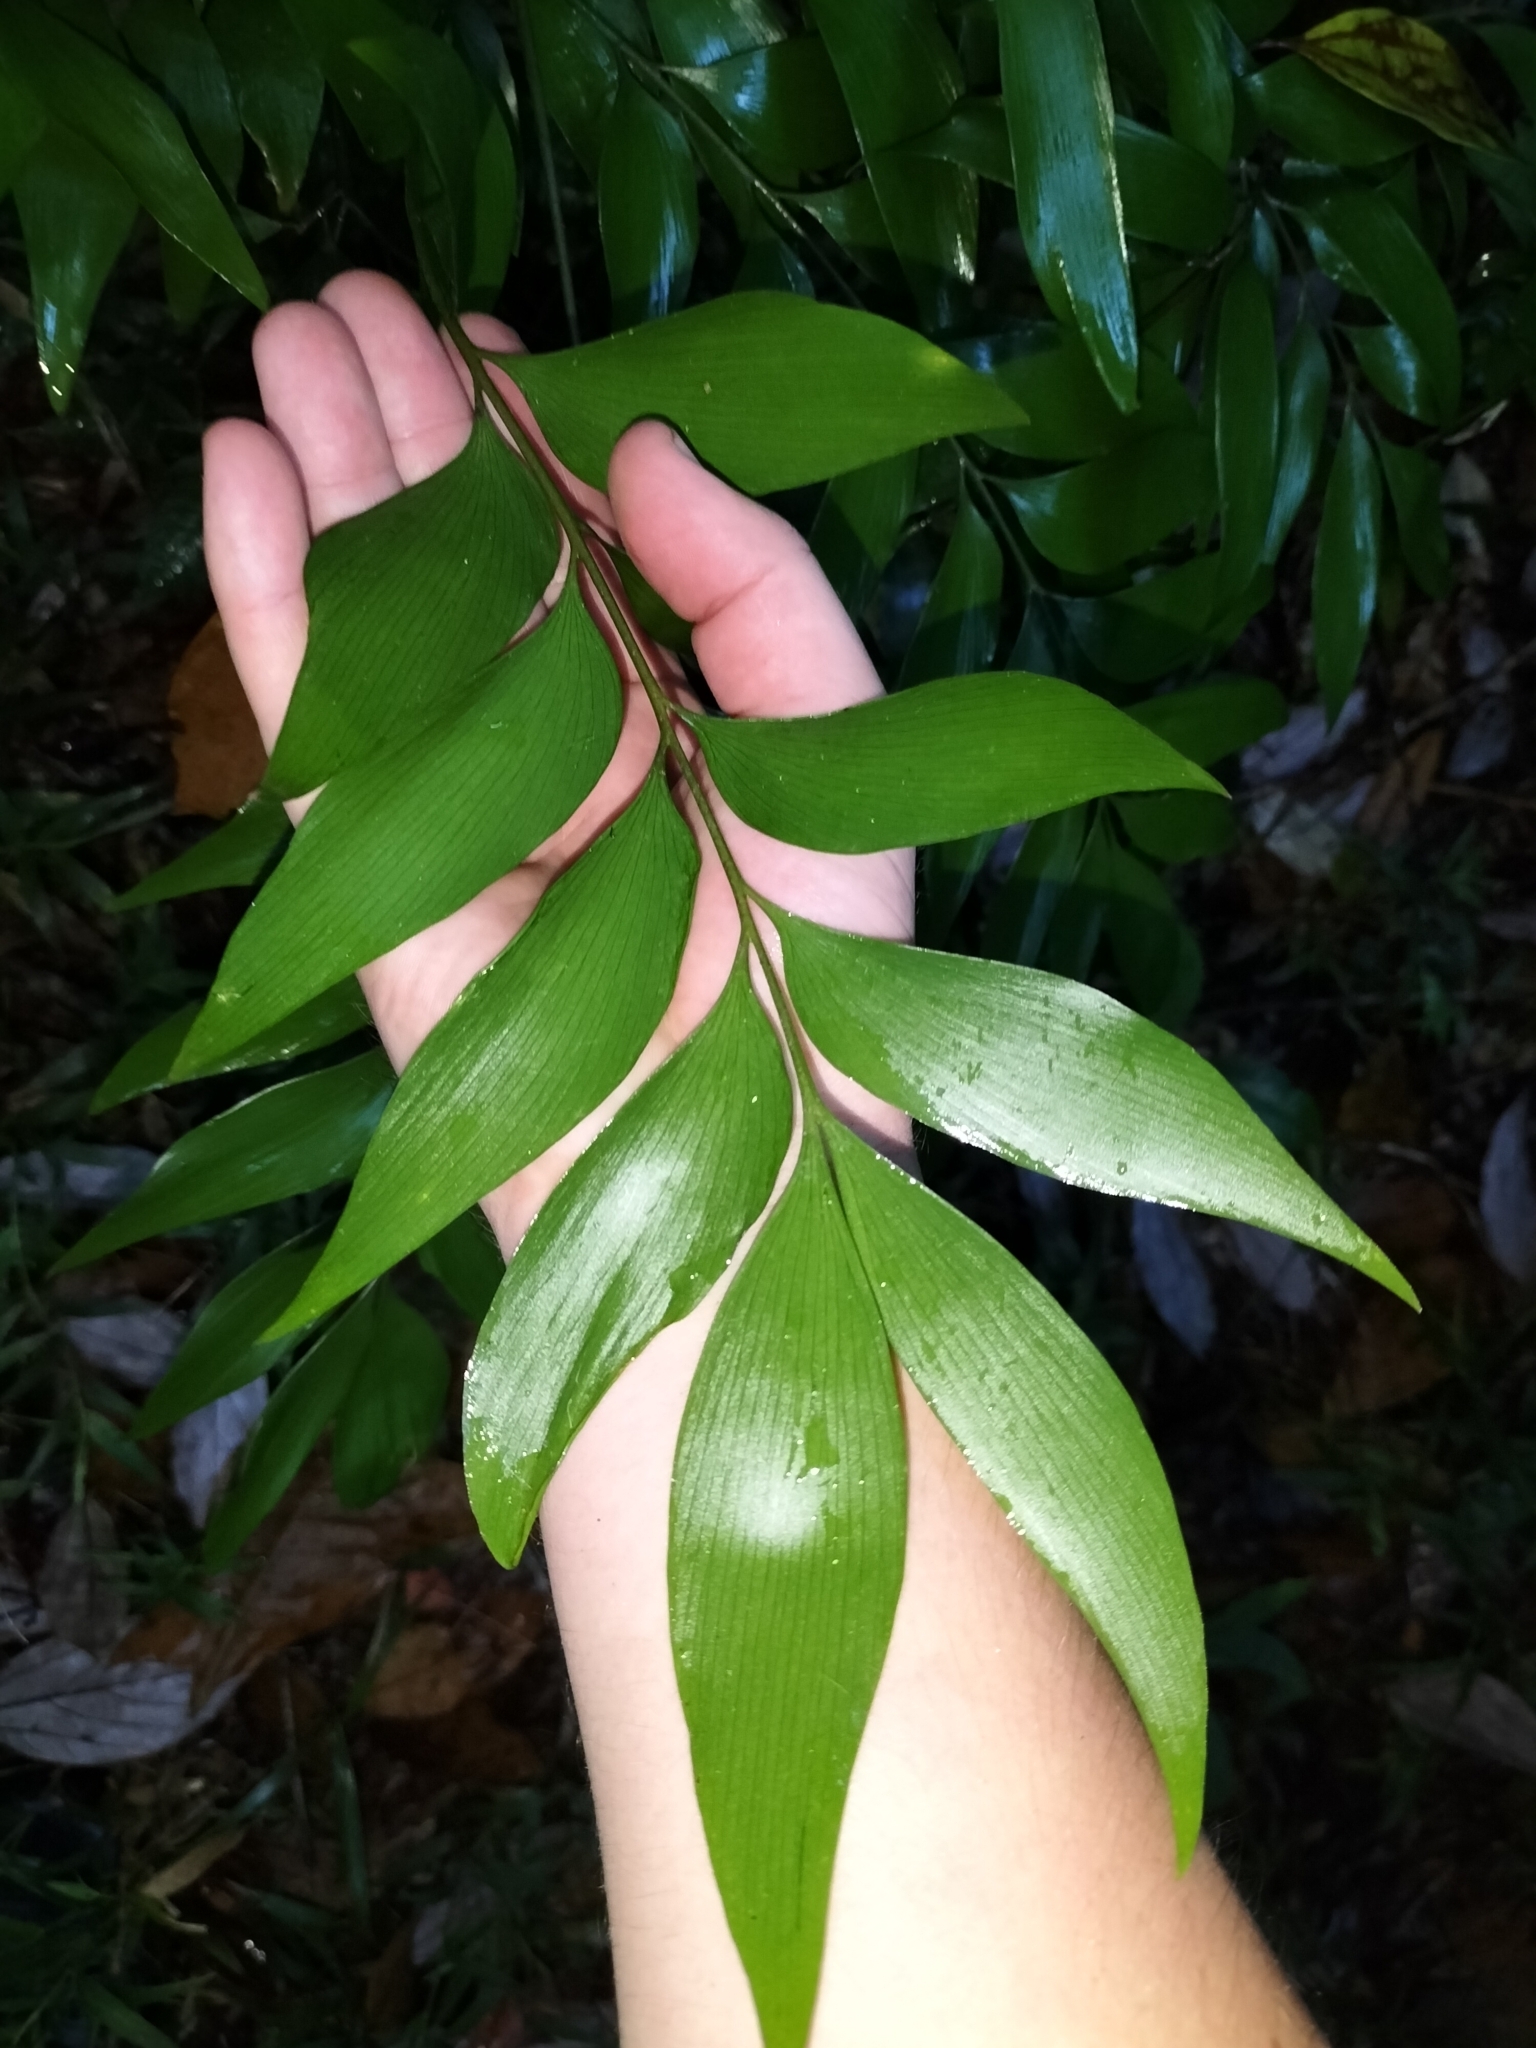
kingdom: Plantae
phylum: Tracheophyta
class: Cycadopsida
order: Cycadales
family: Zamiaceae
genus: Bowenia
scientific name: Bowenia spectabilis
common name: Zamia-fern
